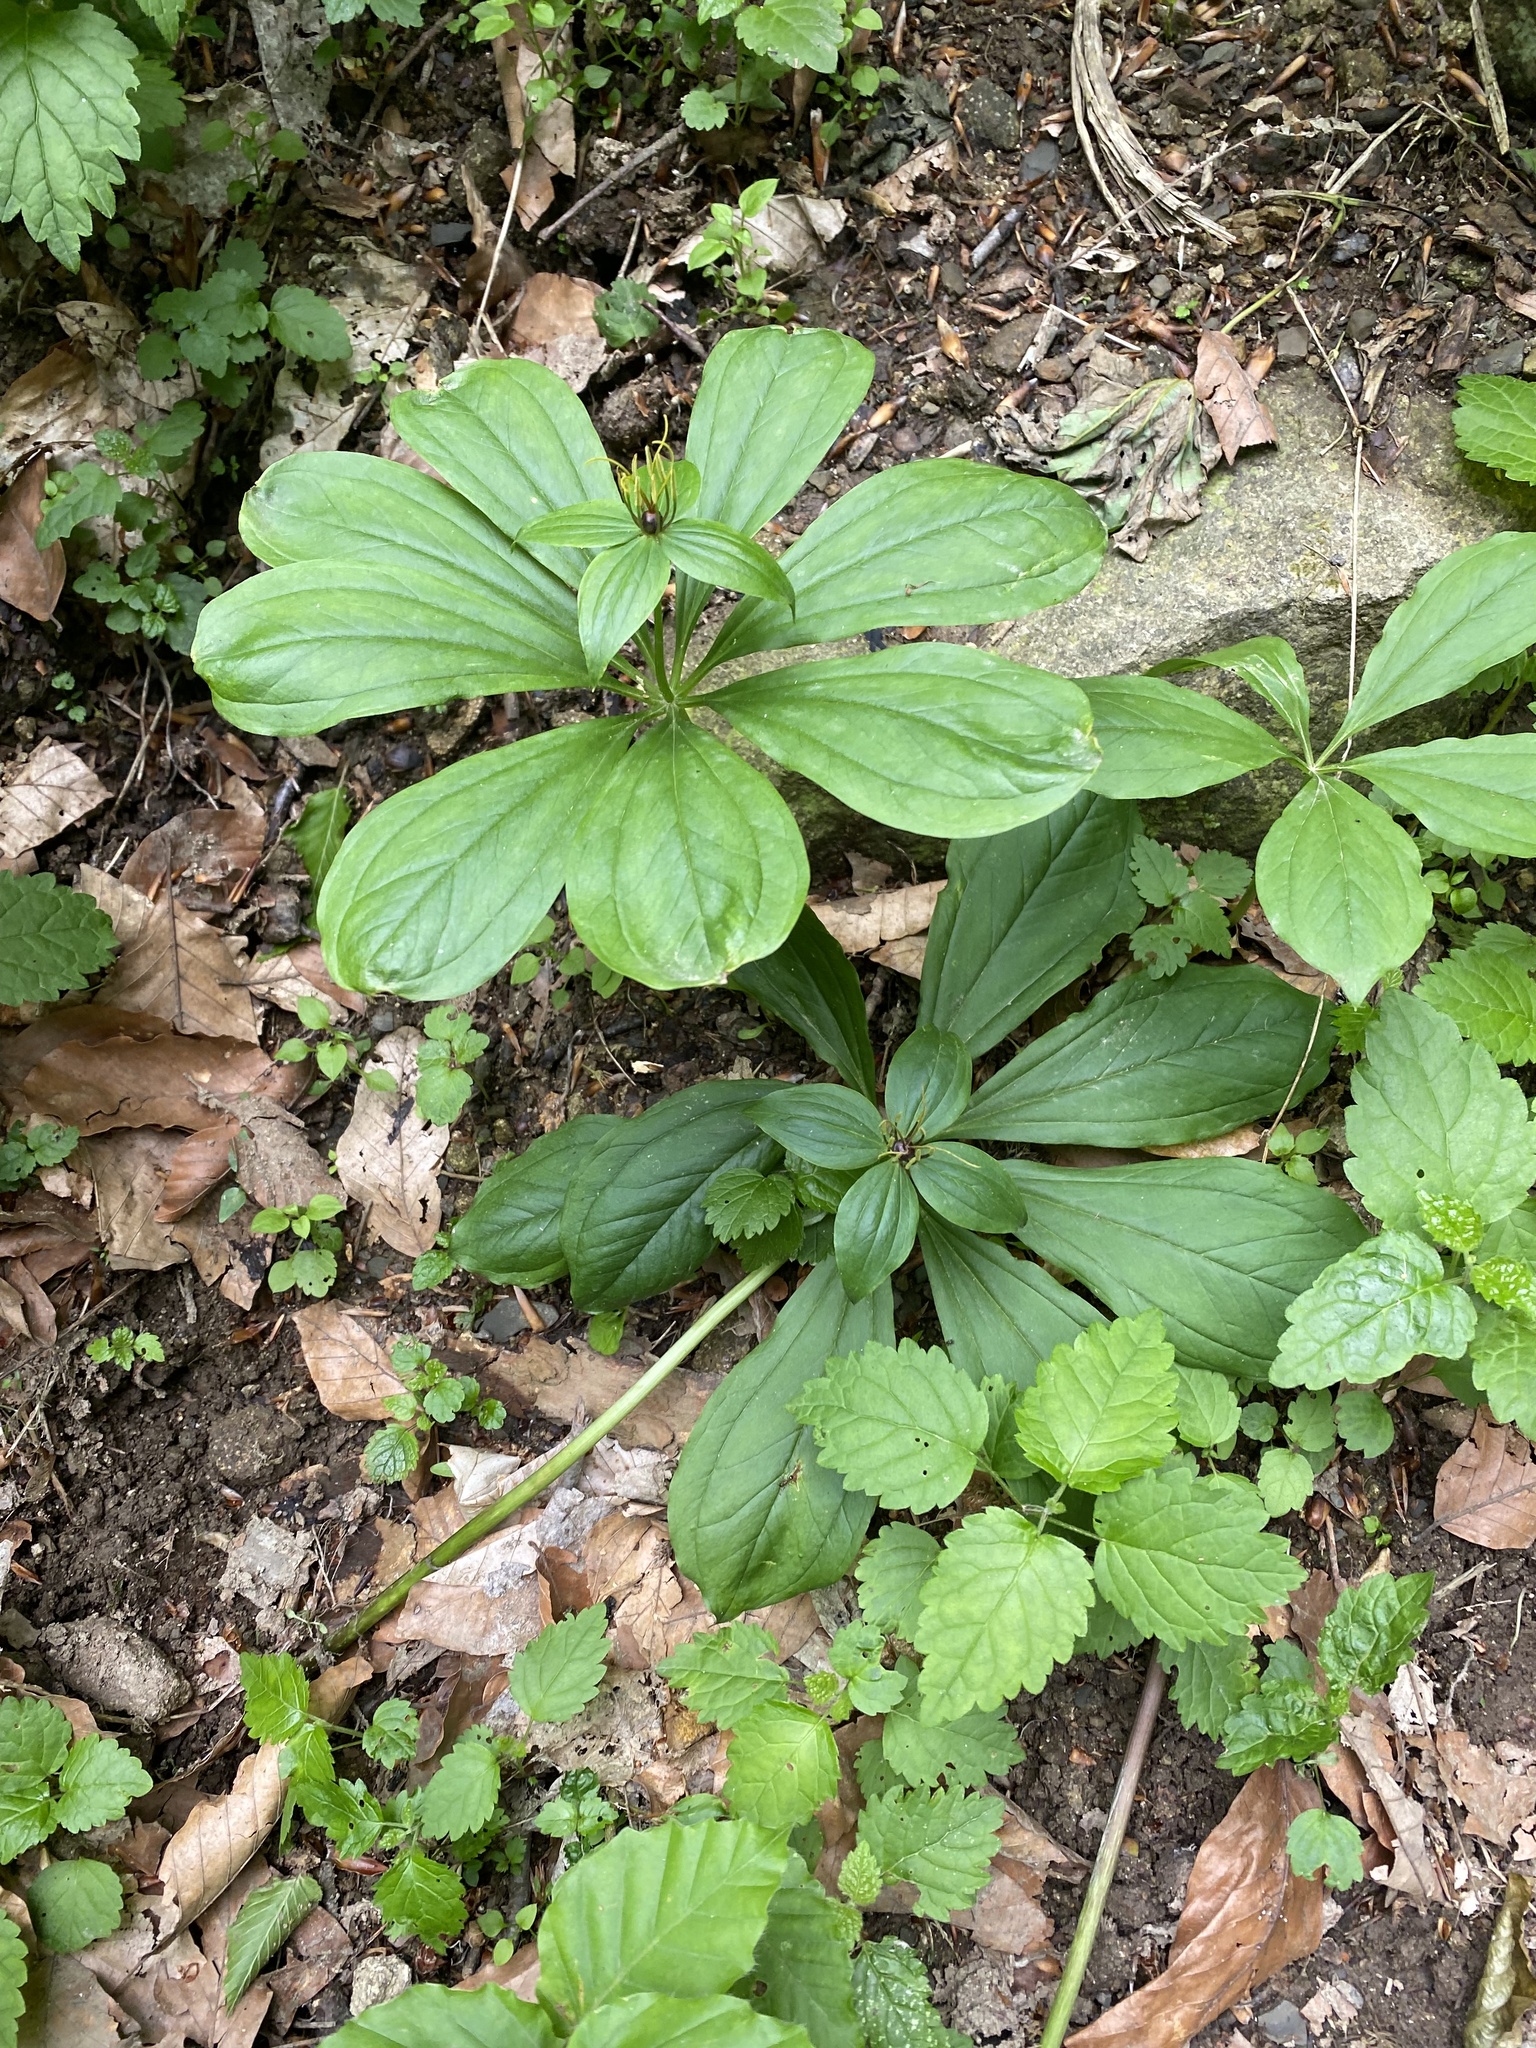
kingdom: Plantae
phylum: Tracheophyta
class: Liliopsida
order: Liliales
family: Melanthiaceae
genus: Paris
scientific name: Paris incompleta
